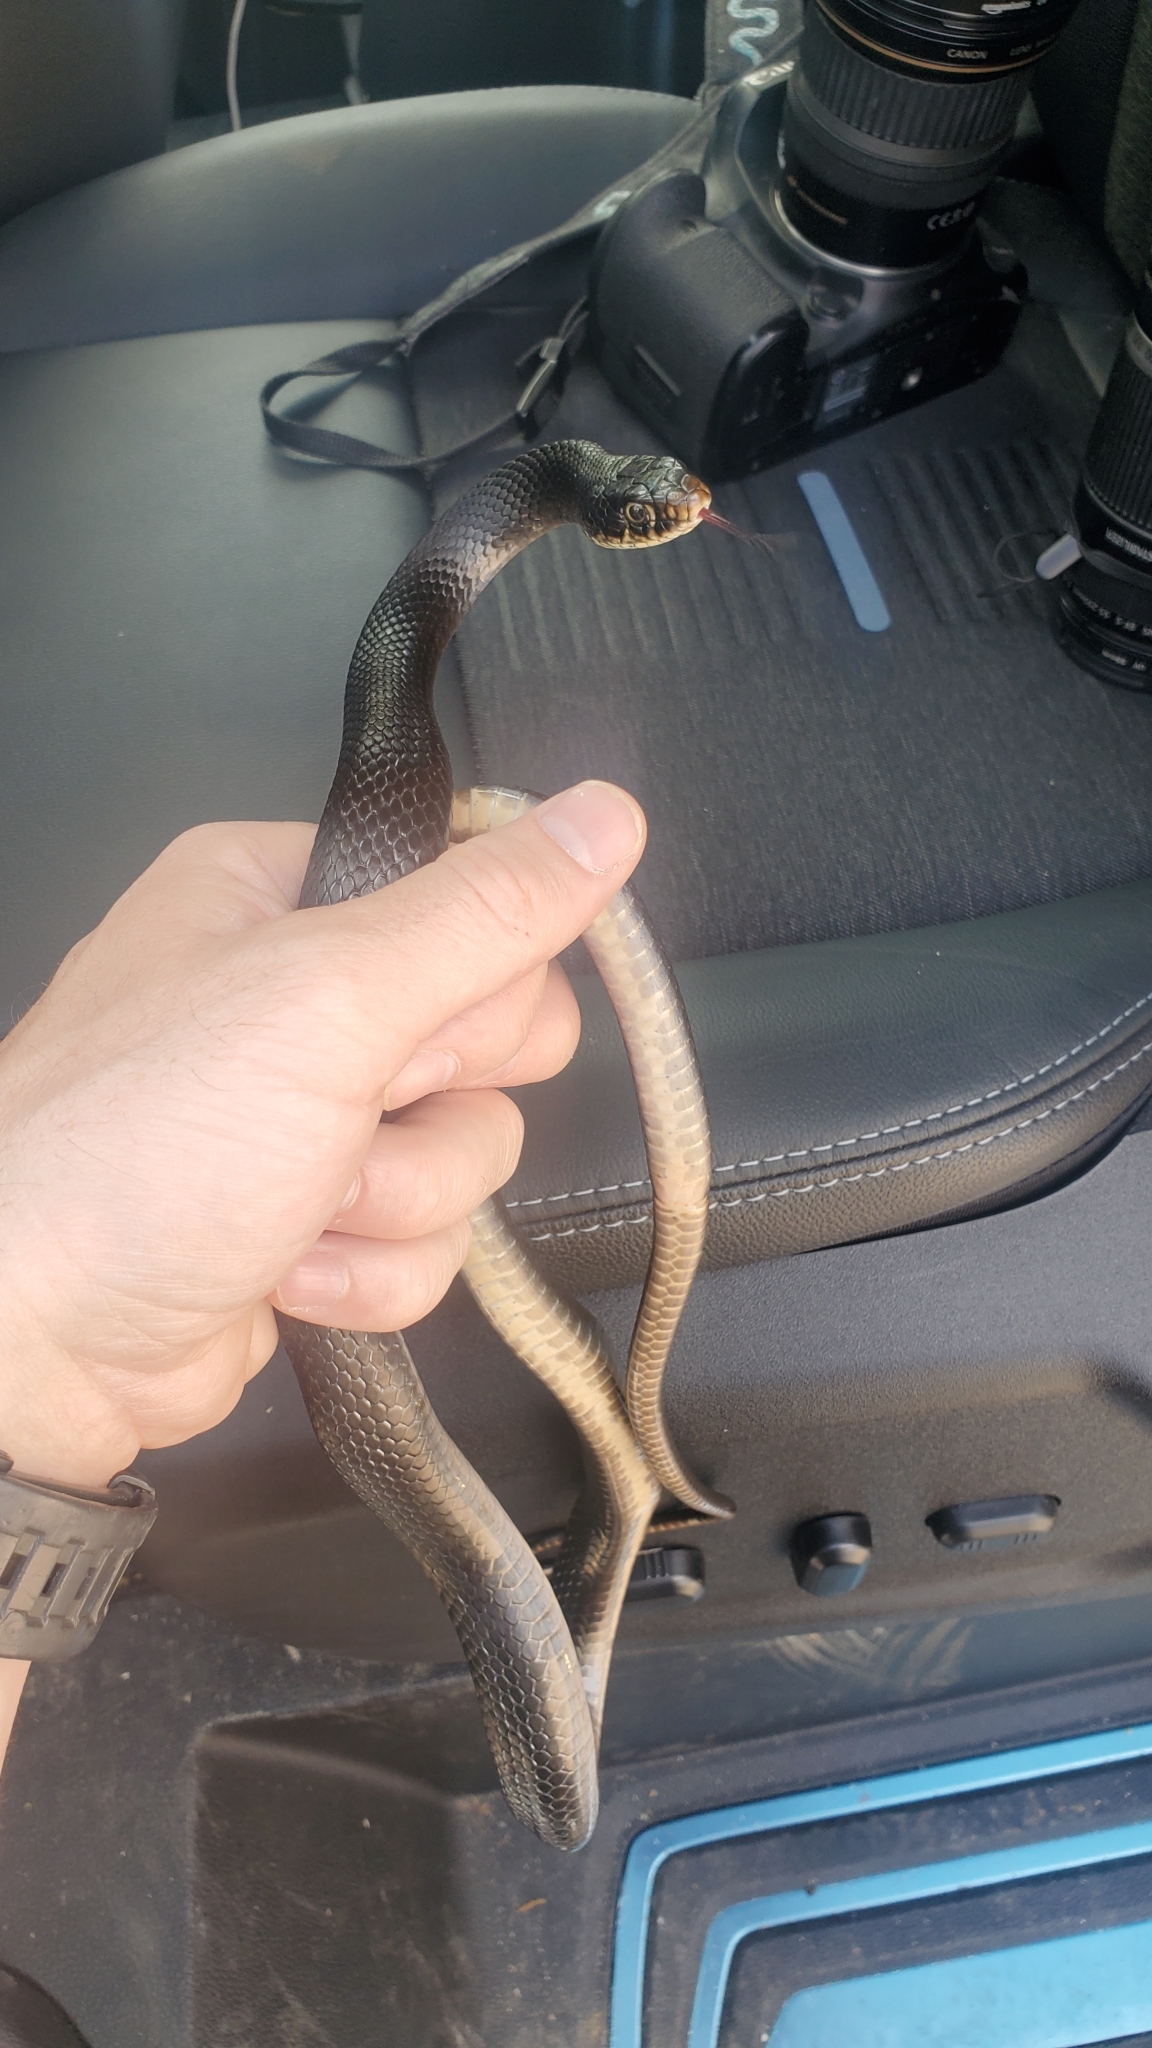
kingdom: Animalia
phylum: Chordata
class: Squamata
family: Colubridae
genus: Hierophis
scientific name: Hierophis viridiflavus
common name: Green whip snake
